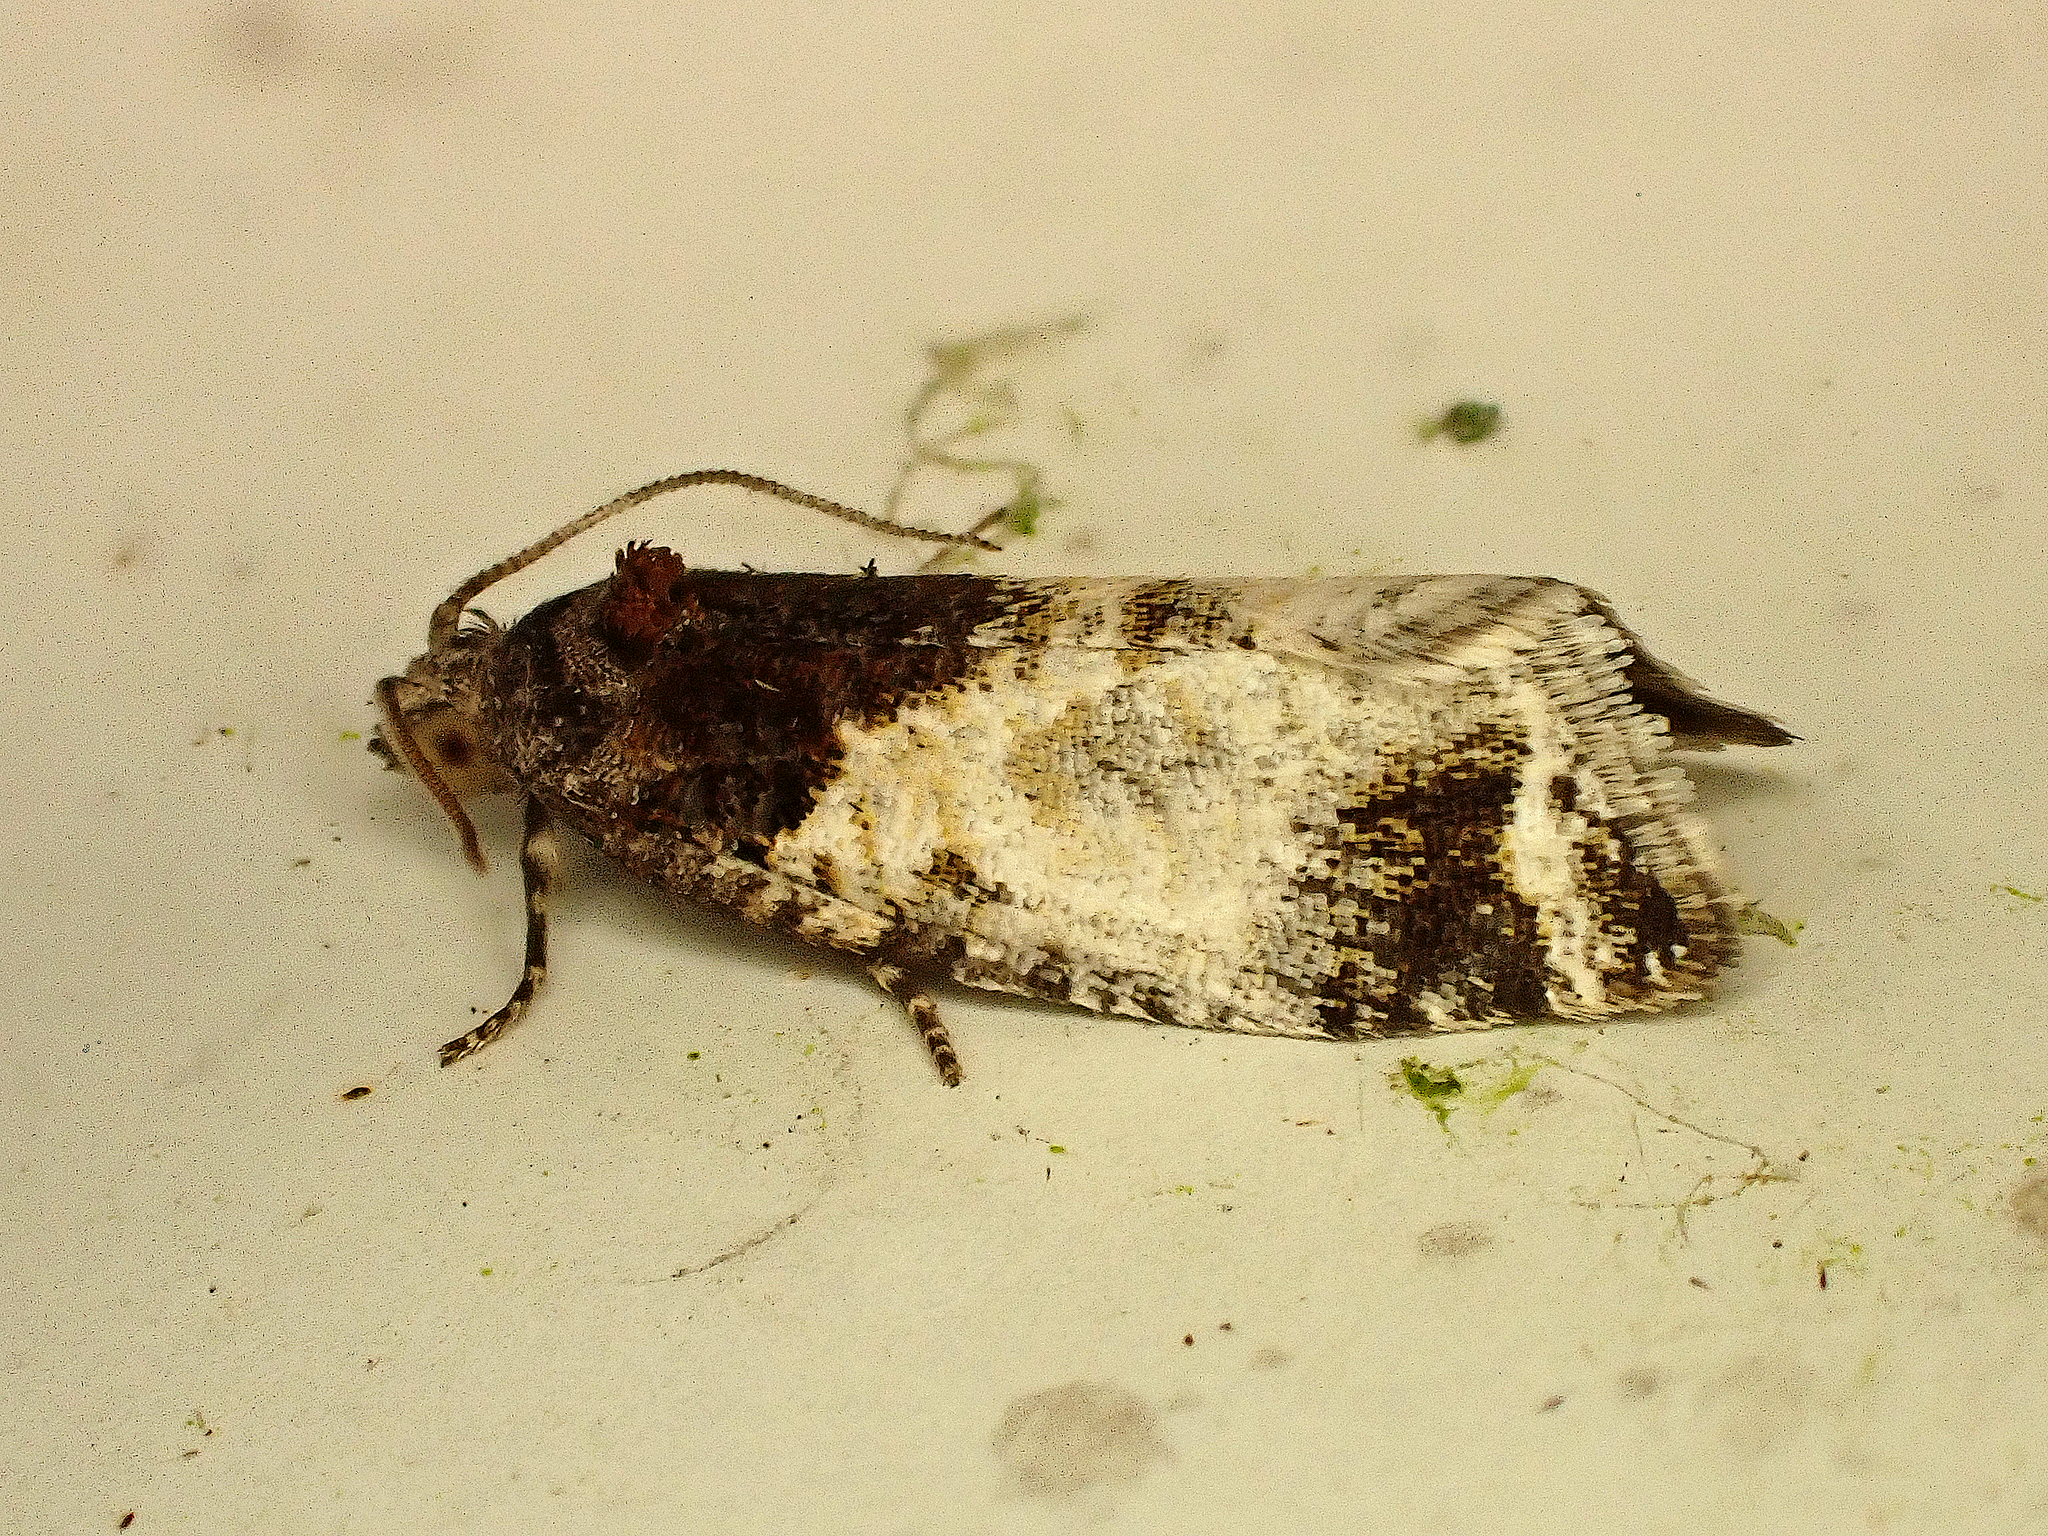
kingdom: Animalia
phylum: Arthropoda
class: Insecta
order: Lepidoptera
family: Tortricidae
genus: Pyrgotis
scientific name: Pyrgotis calligypsa
